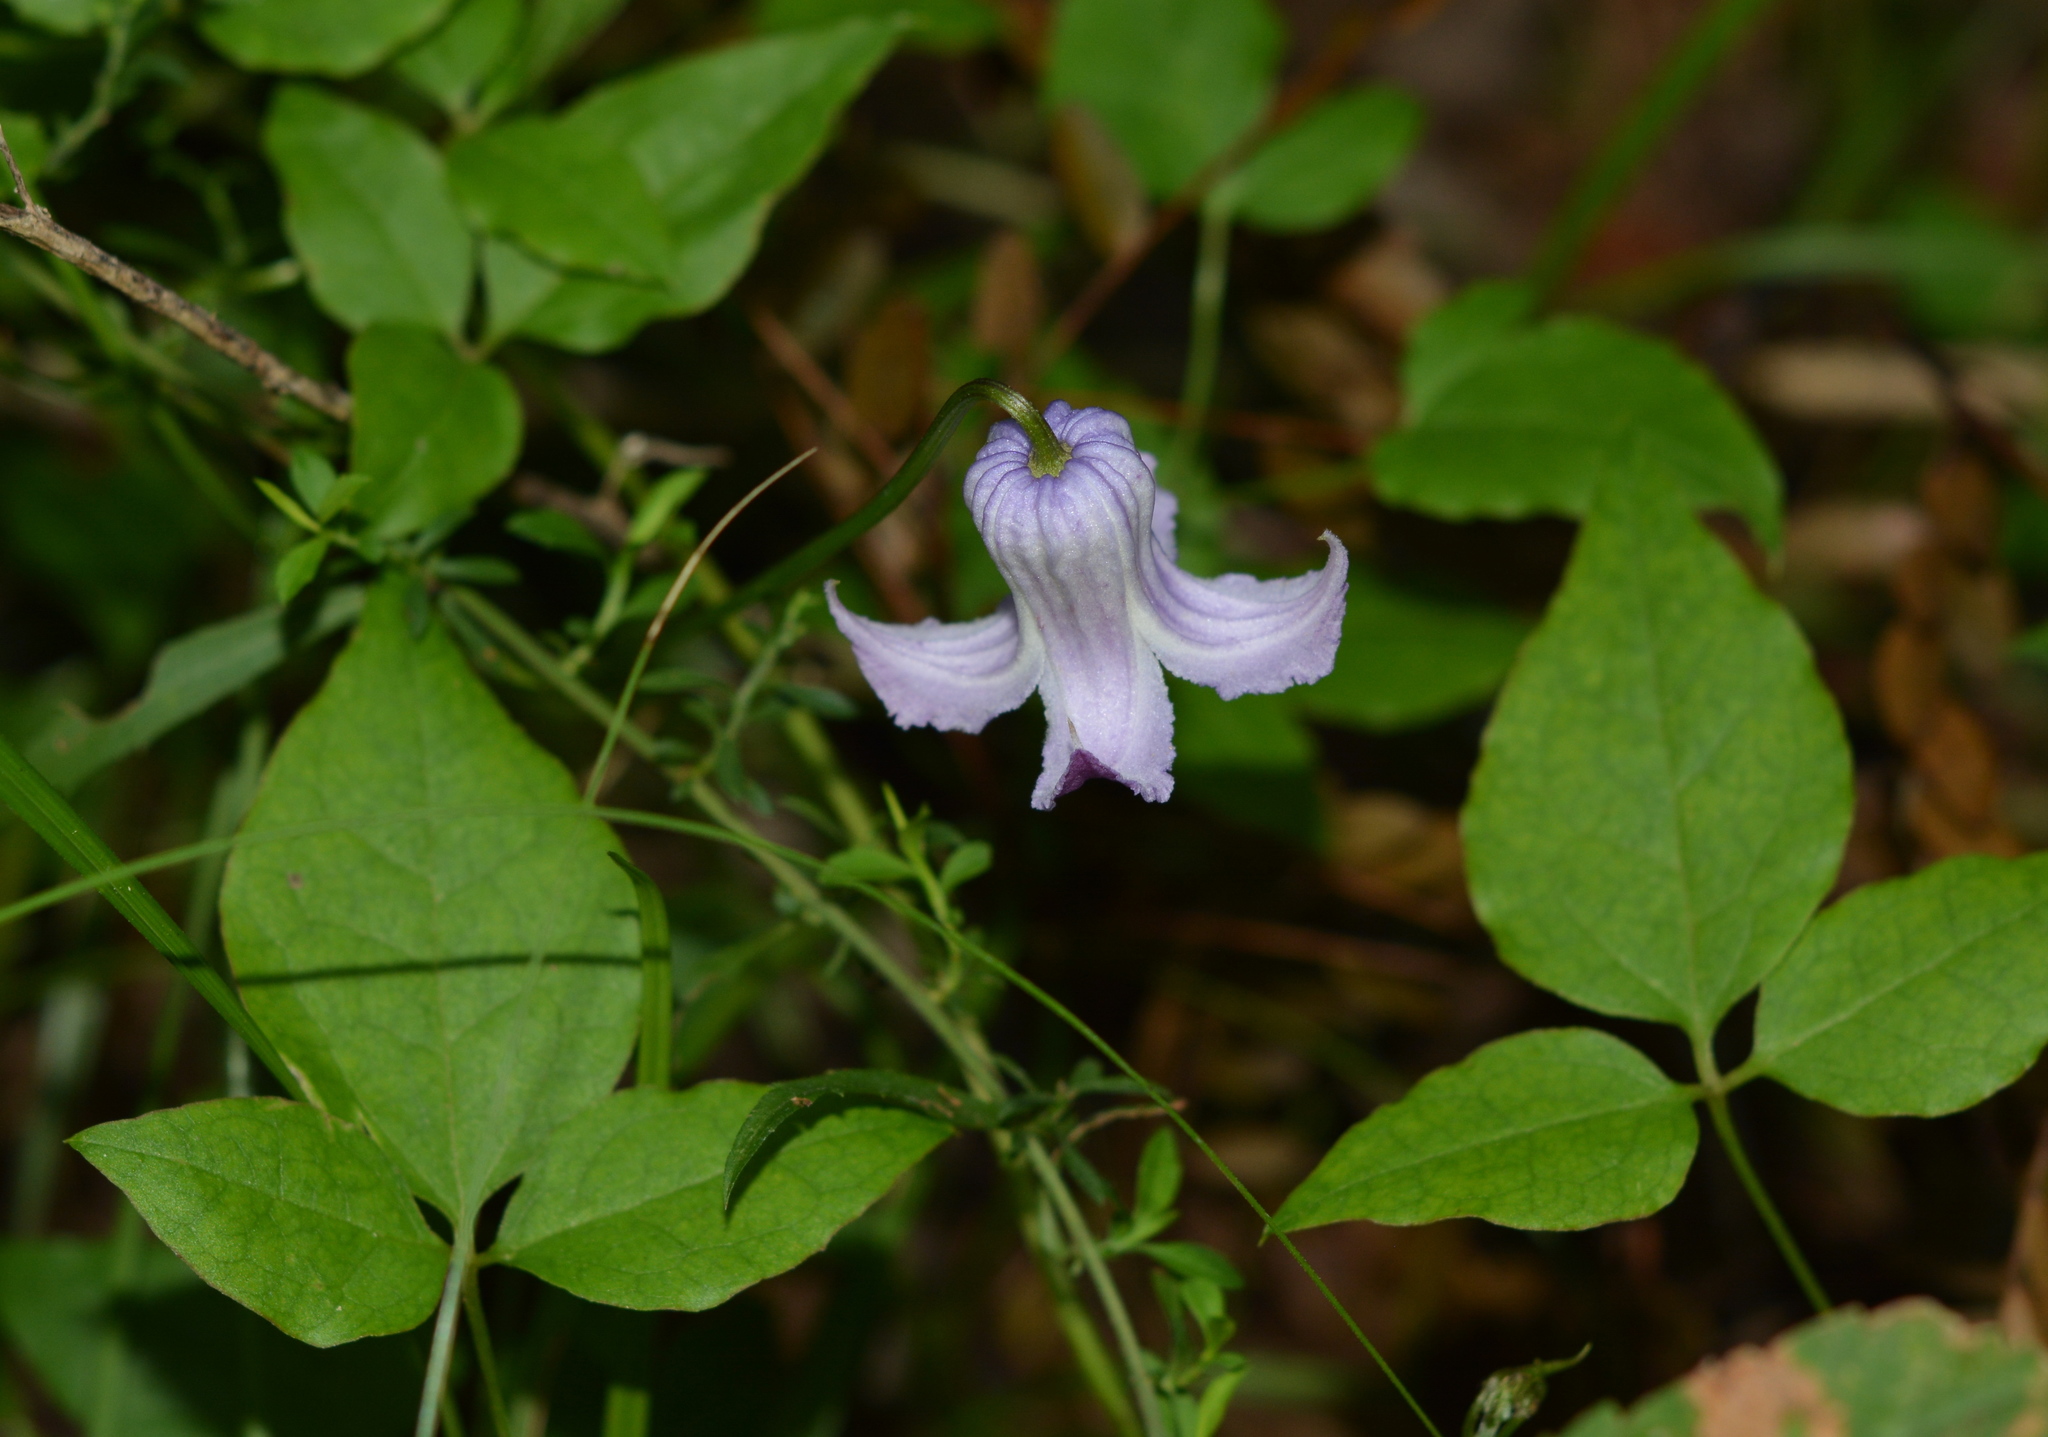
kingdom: Plantae
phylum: Tracheophyta
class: Magnoliopsida
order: Ranunculales
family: Ranunculaceae
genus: Clematis
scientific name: Clematis crispa
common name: Curly clematis
